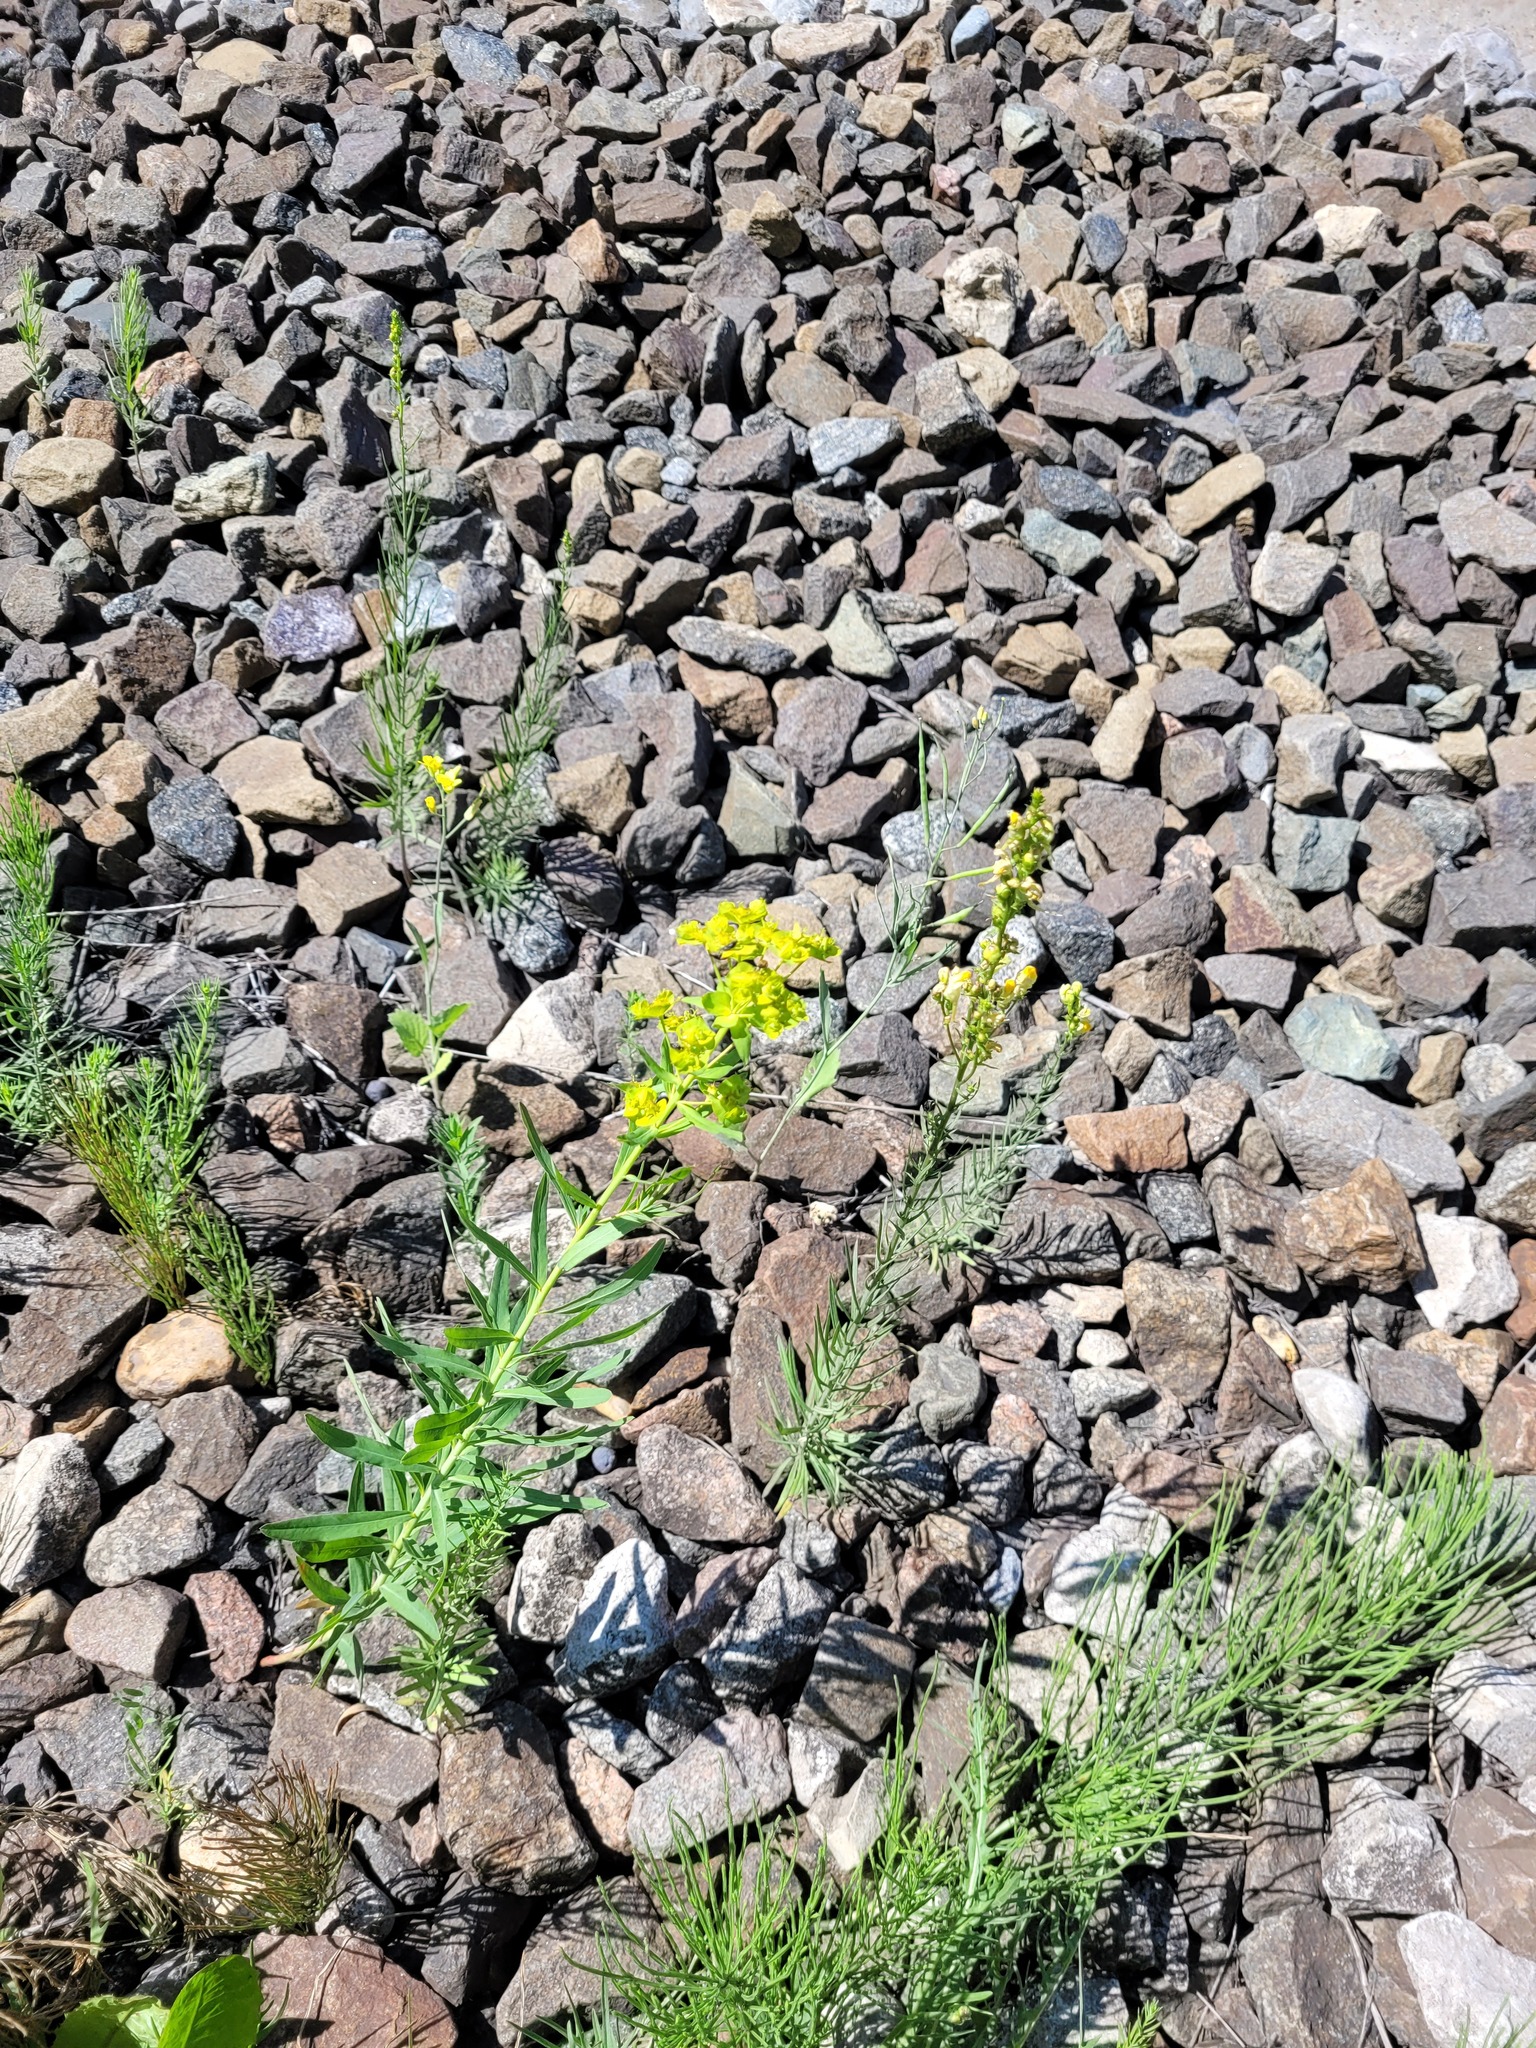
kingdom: Plantae
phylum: Tracheophyta
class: Magnoliopsida
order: Malpighiales
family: Euphorbiaceae
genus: Euphorbia
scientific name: Euphorbia virgata
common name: Leafy spurge
